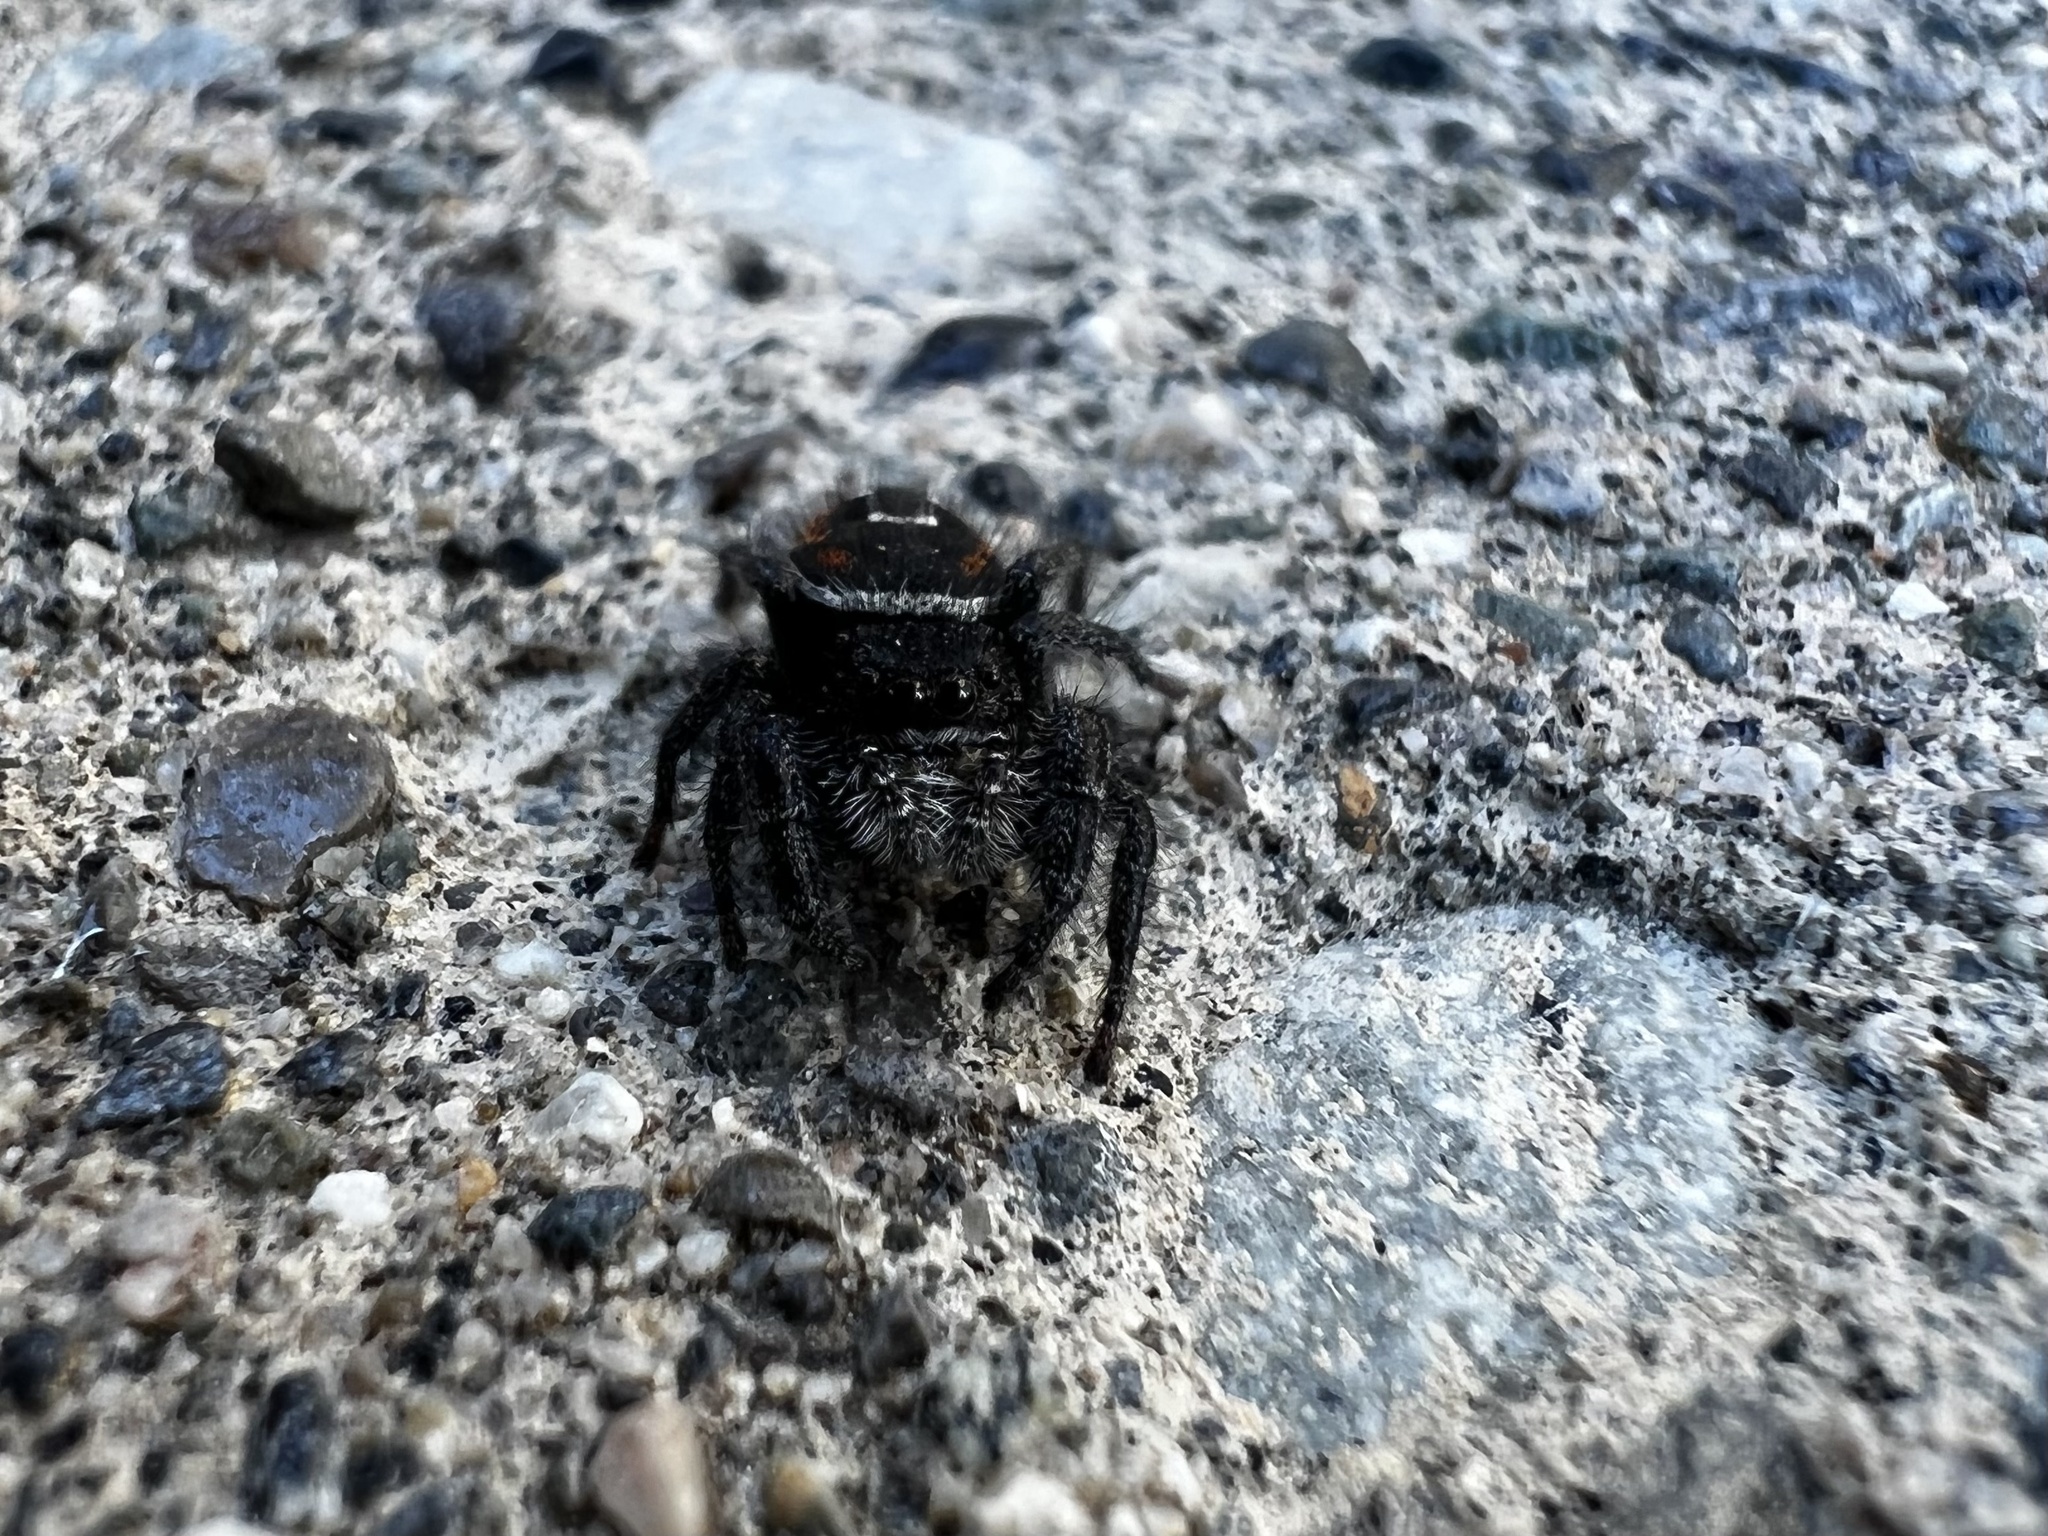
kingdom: Animalia
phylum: Arthropoda
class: Arachnida
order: Araneae
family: Salticidae
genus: Phidippus
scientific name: Phidippus johnsoni
